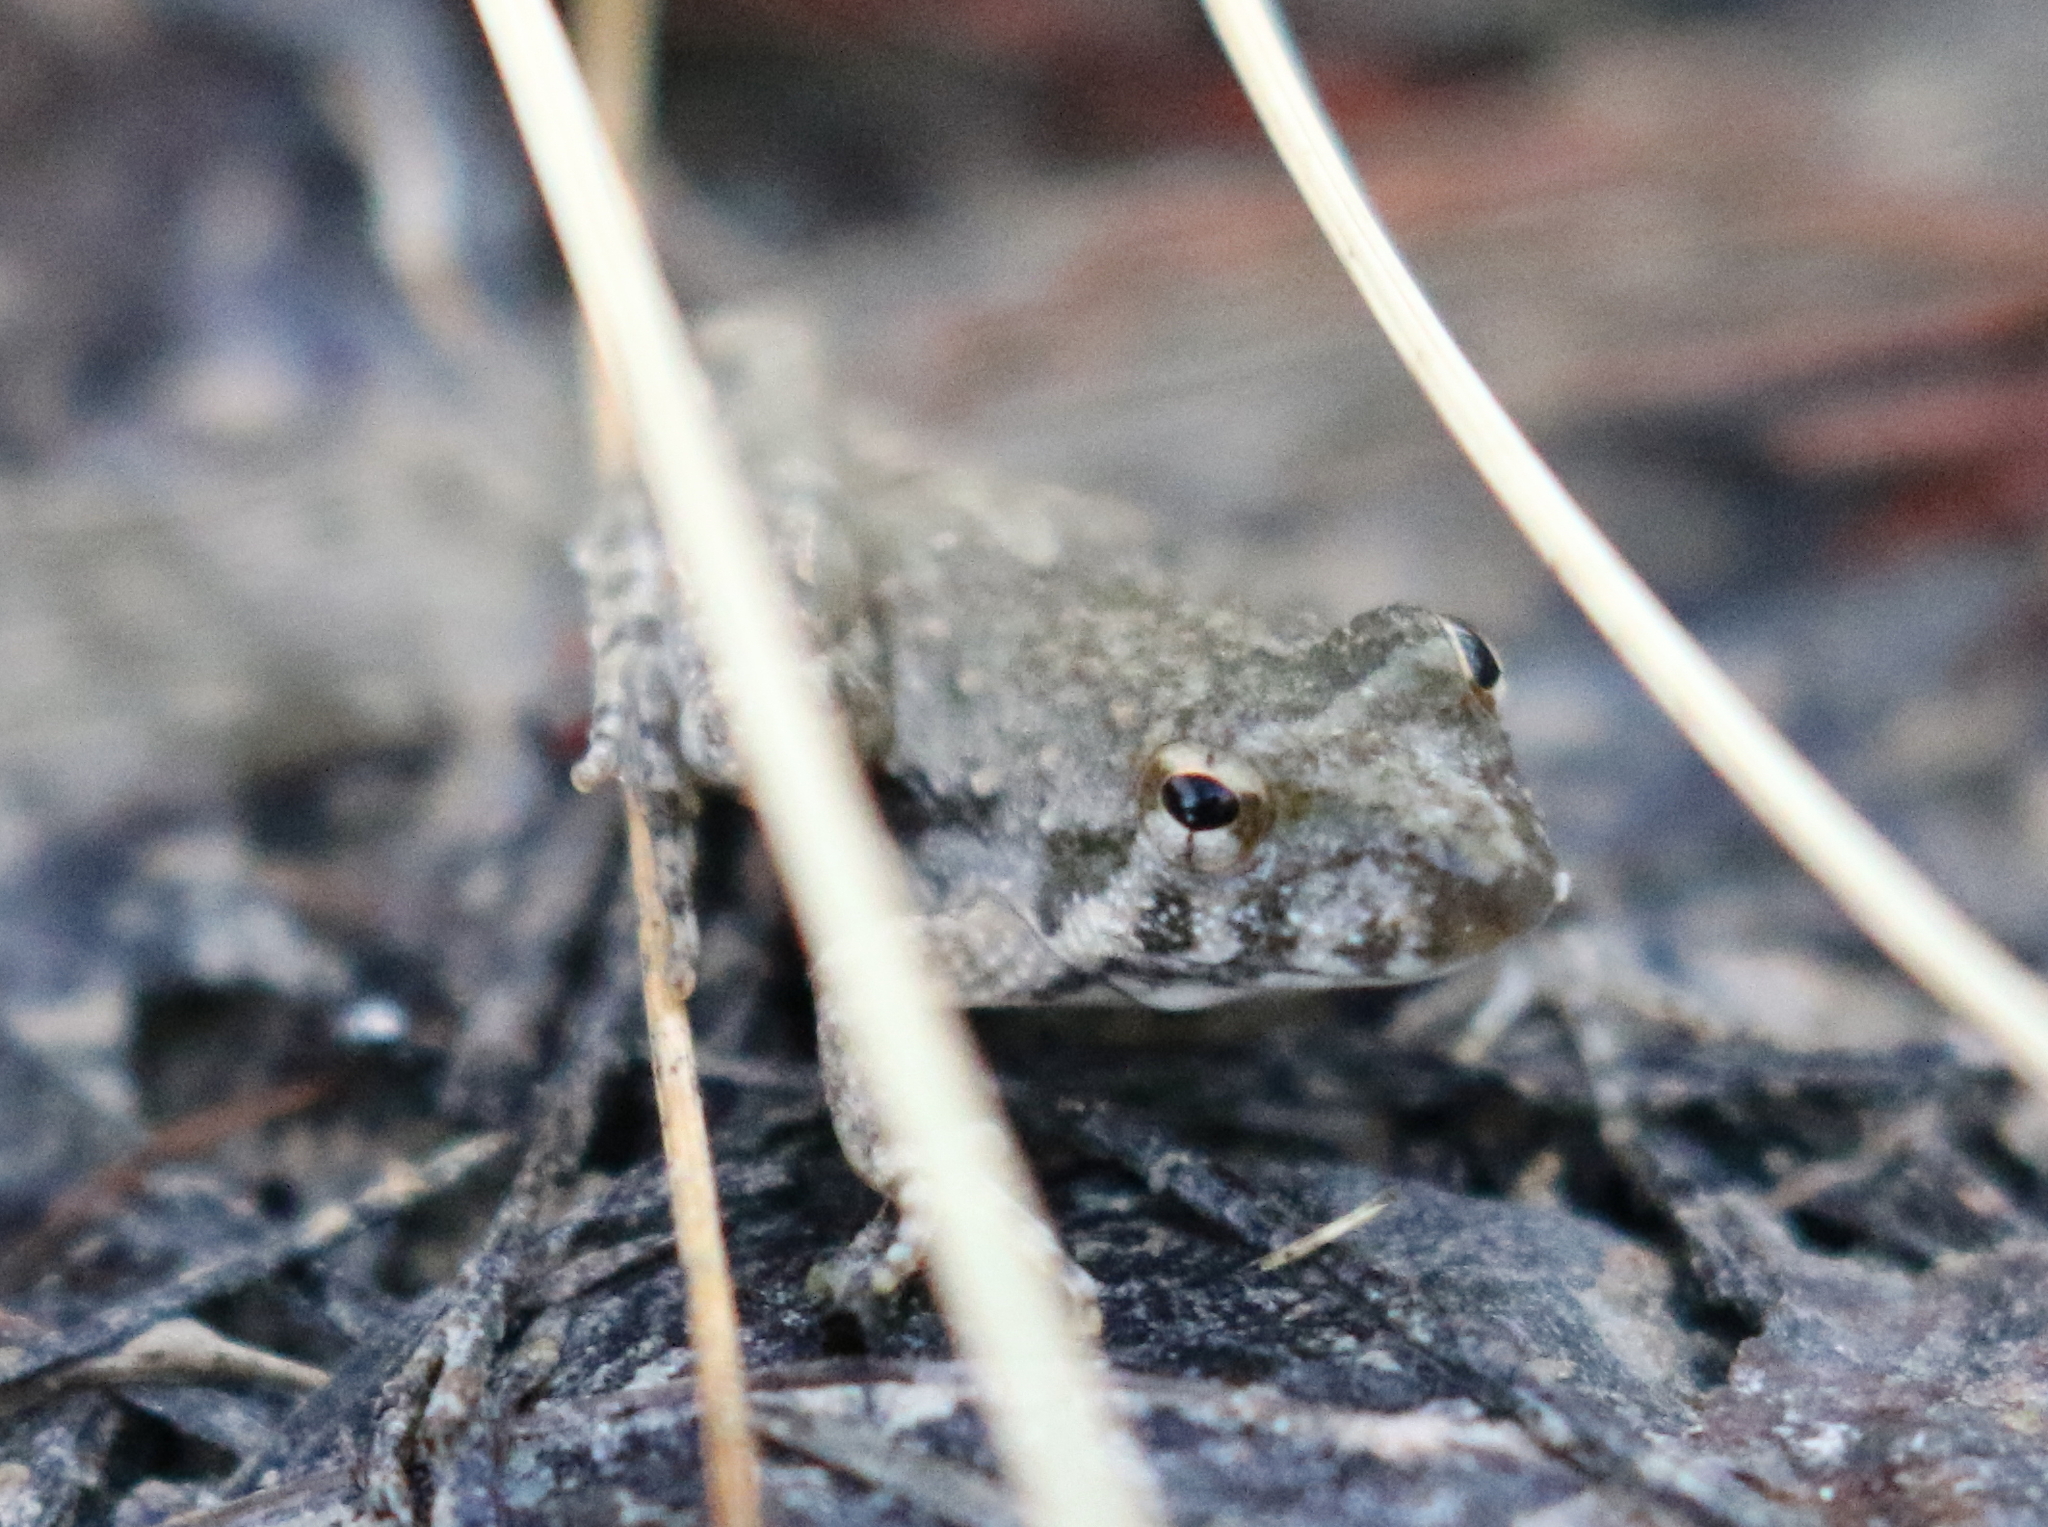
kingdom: Animalia
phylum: Chordata
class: Amphibia
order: Anura
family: Hylidae
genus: Acris
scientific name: Acris blanchardi
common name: Blanchard's cricket frog
